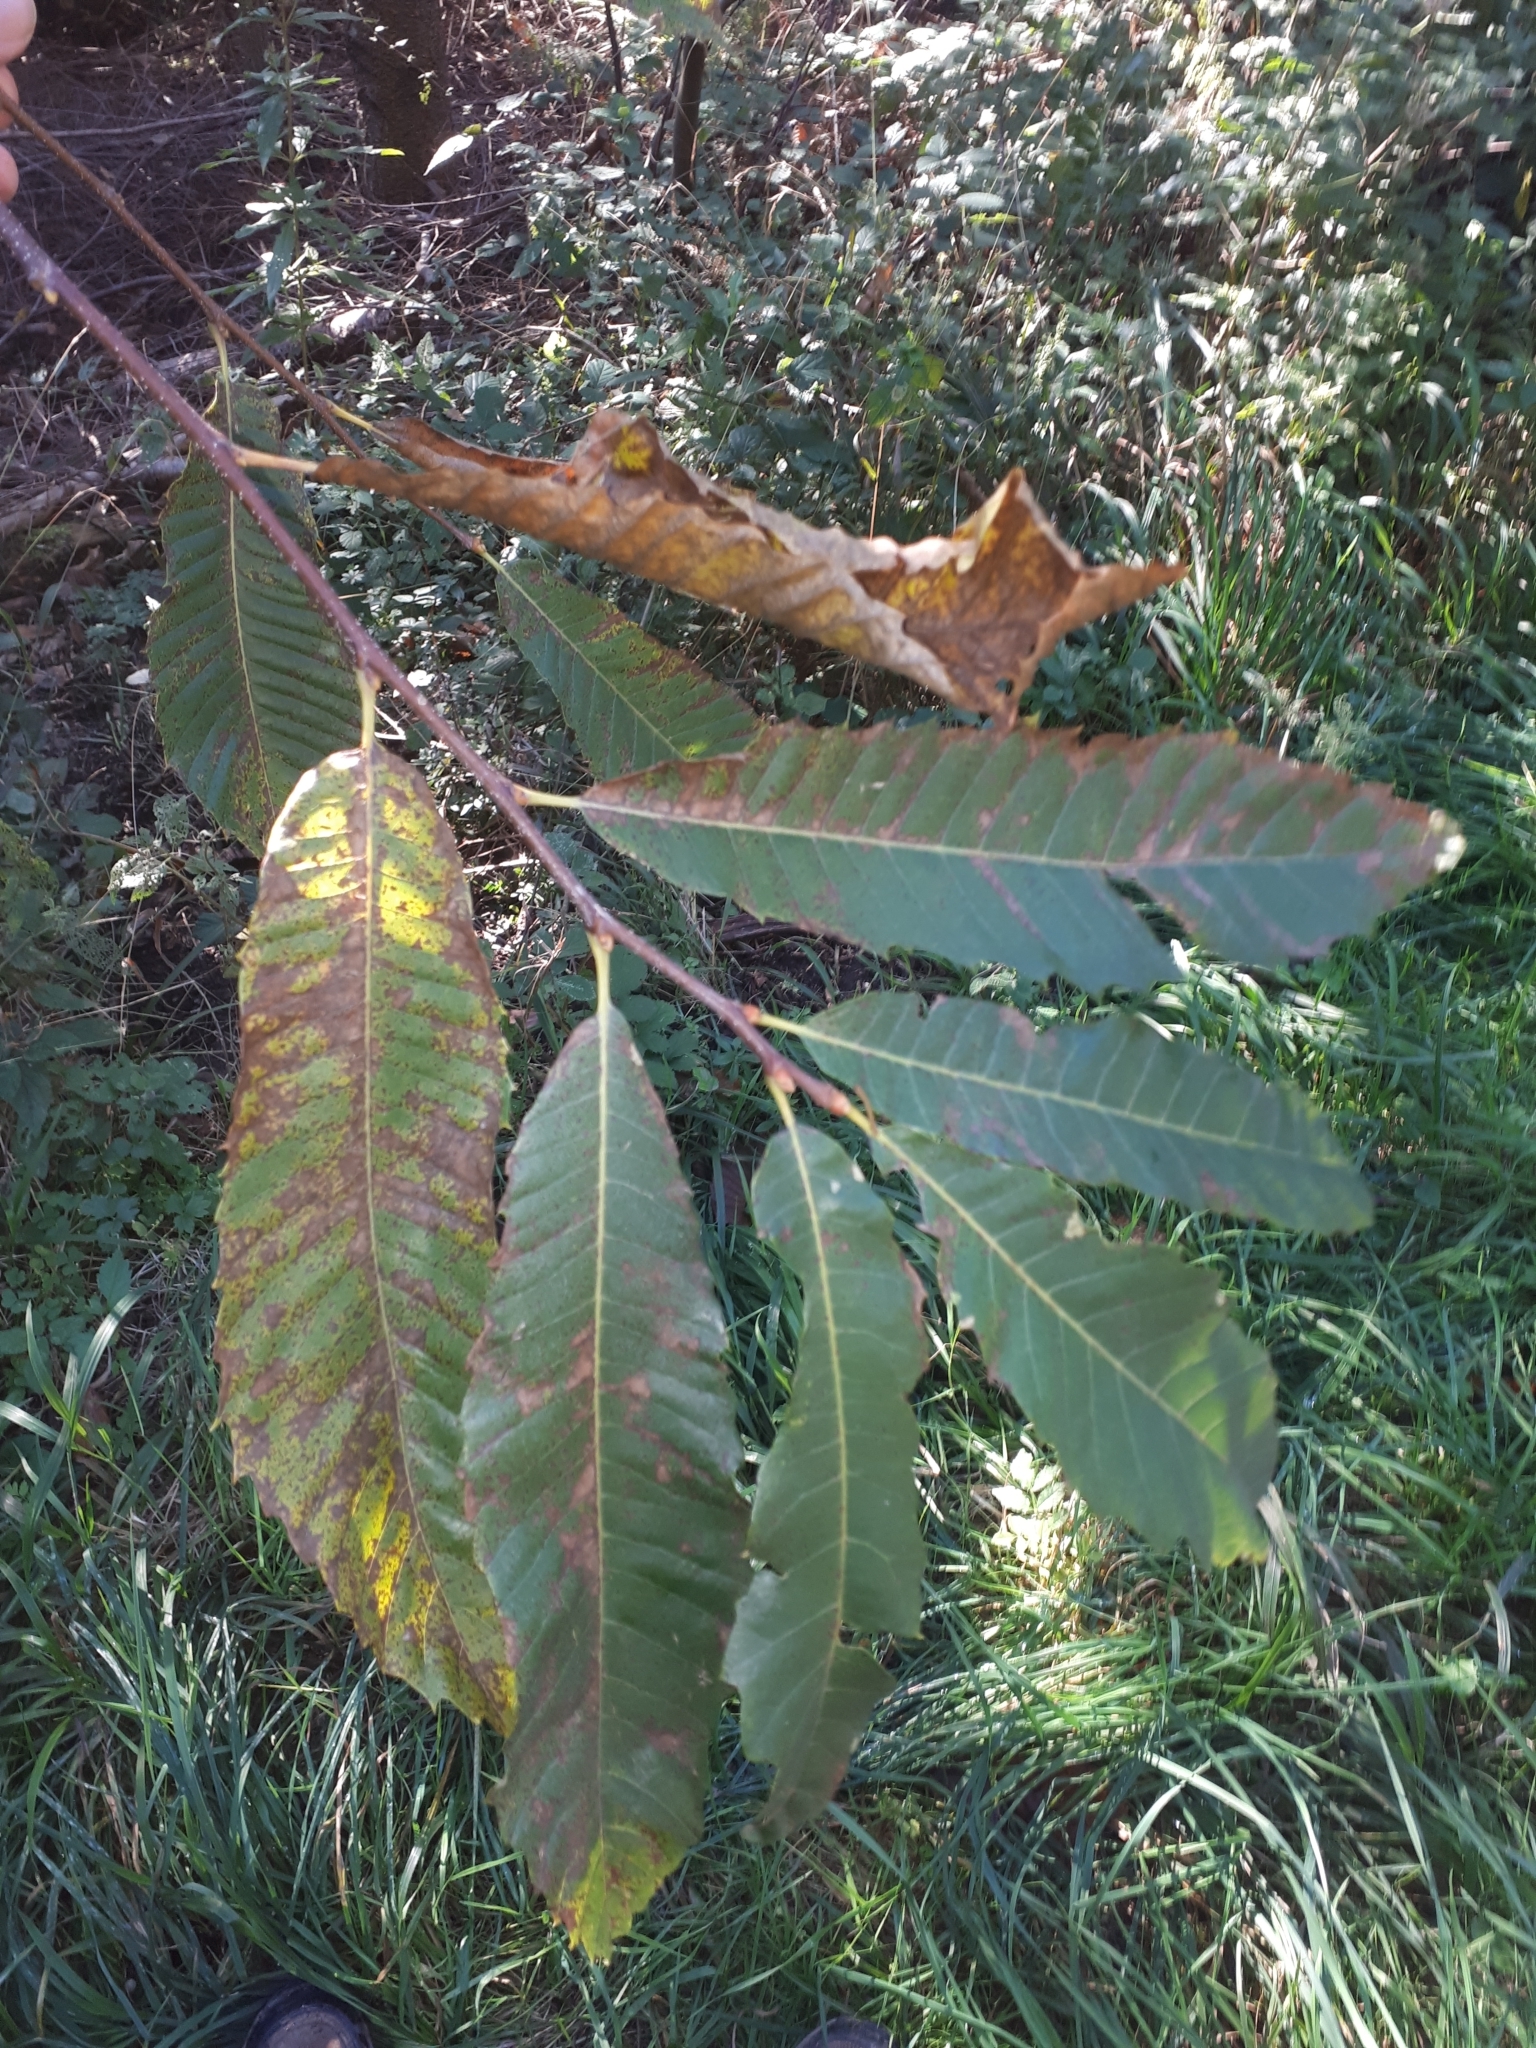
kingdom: Plantae
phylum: Tracheophyta
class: Magnoliopsida
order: Fagales
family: Fagaceae
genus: Castanea
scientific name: Castanea sativa
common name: Sweet chestnut
